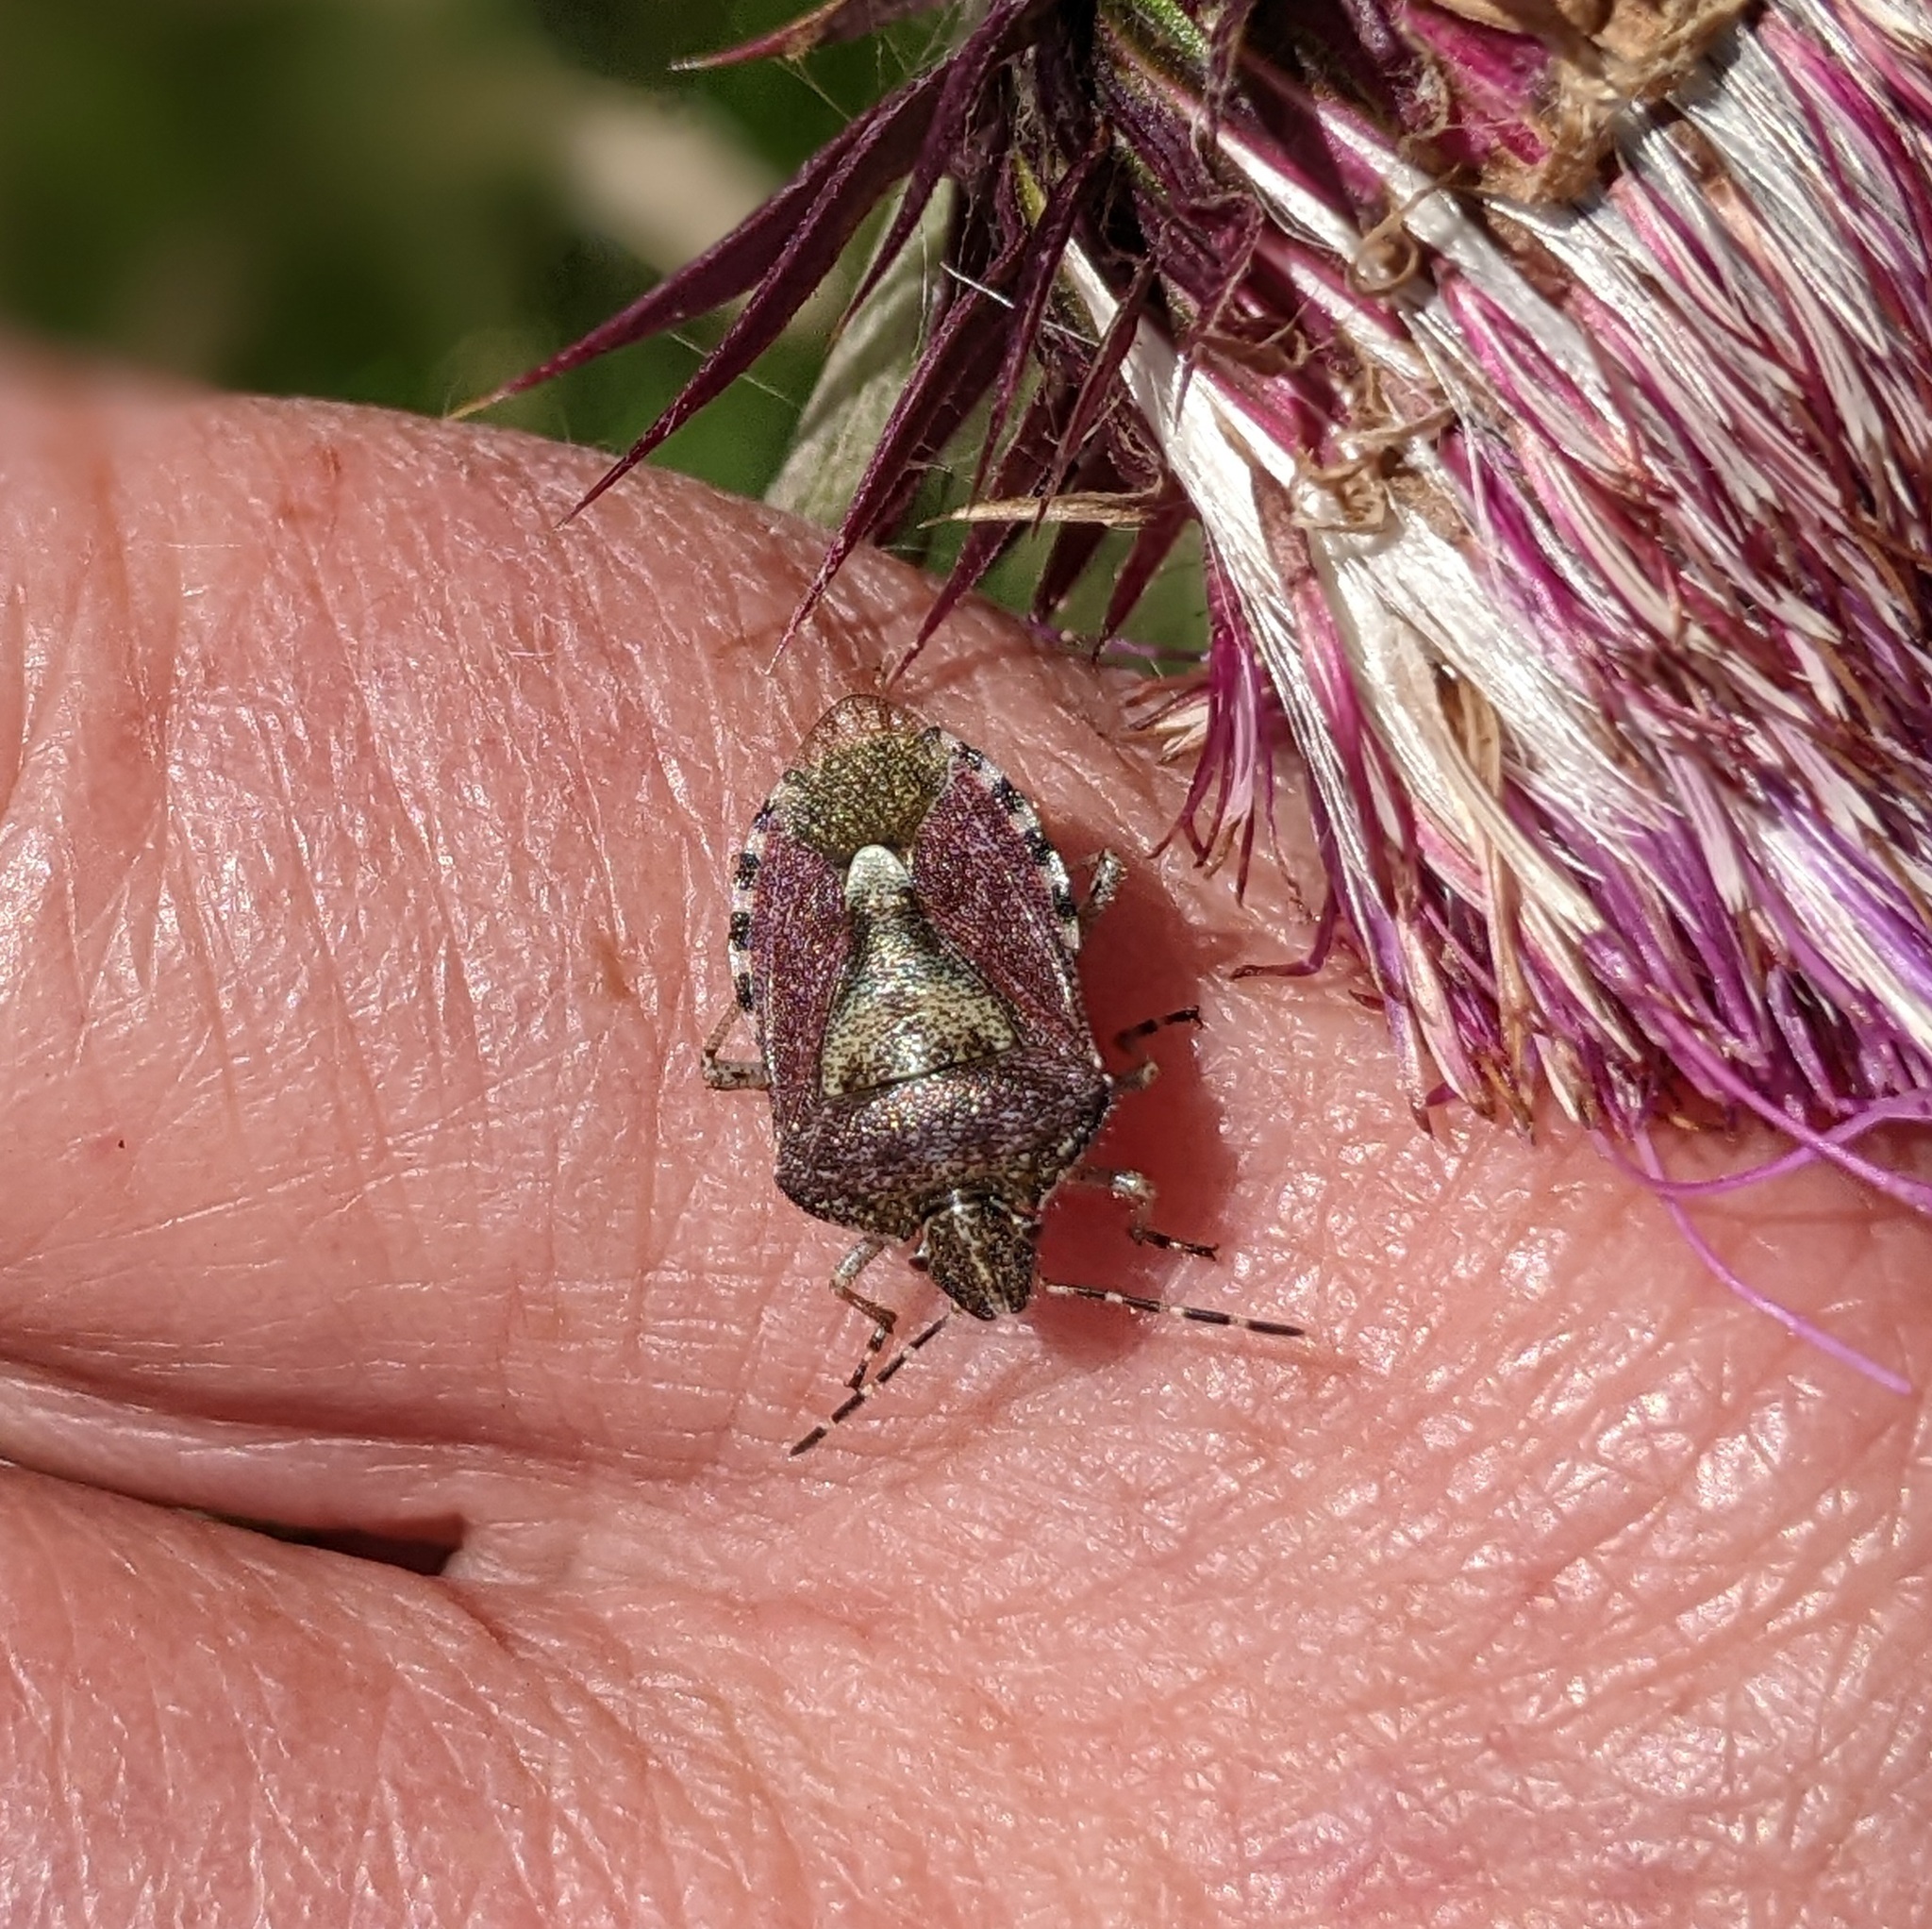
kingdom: Animalia
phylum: Arthropoda
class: Insecta
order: Hemiptera
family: Pentatomidae
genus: Dolycoris
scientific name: Dolycoris baccarum
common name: Sloe bug
